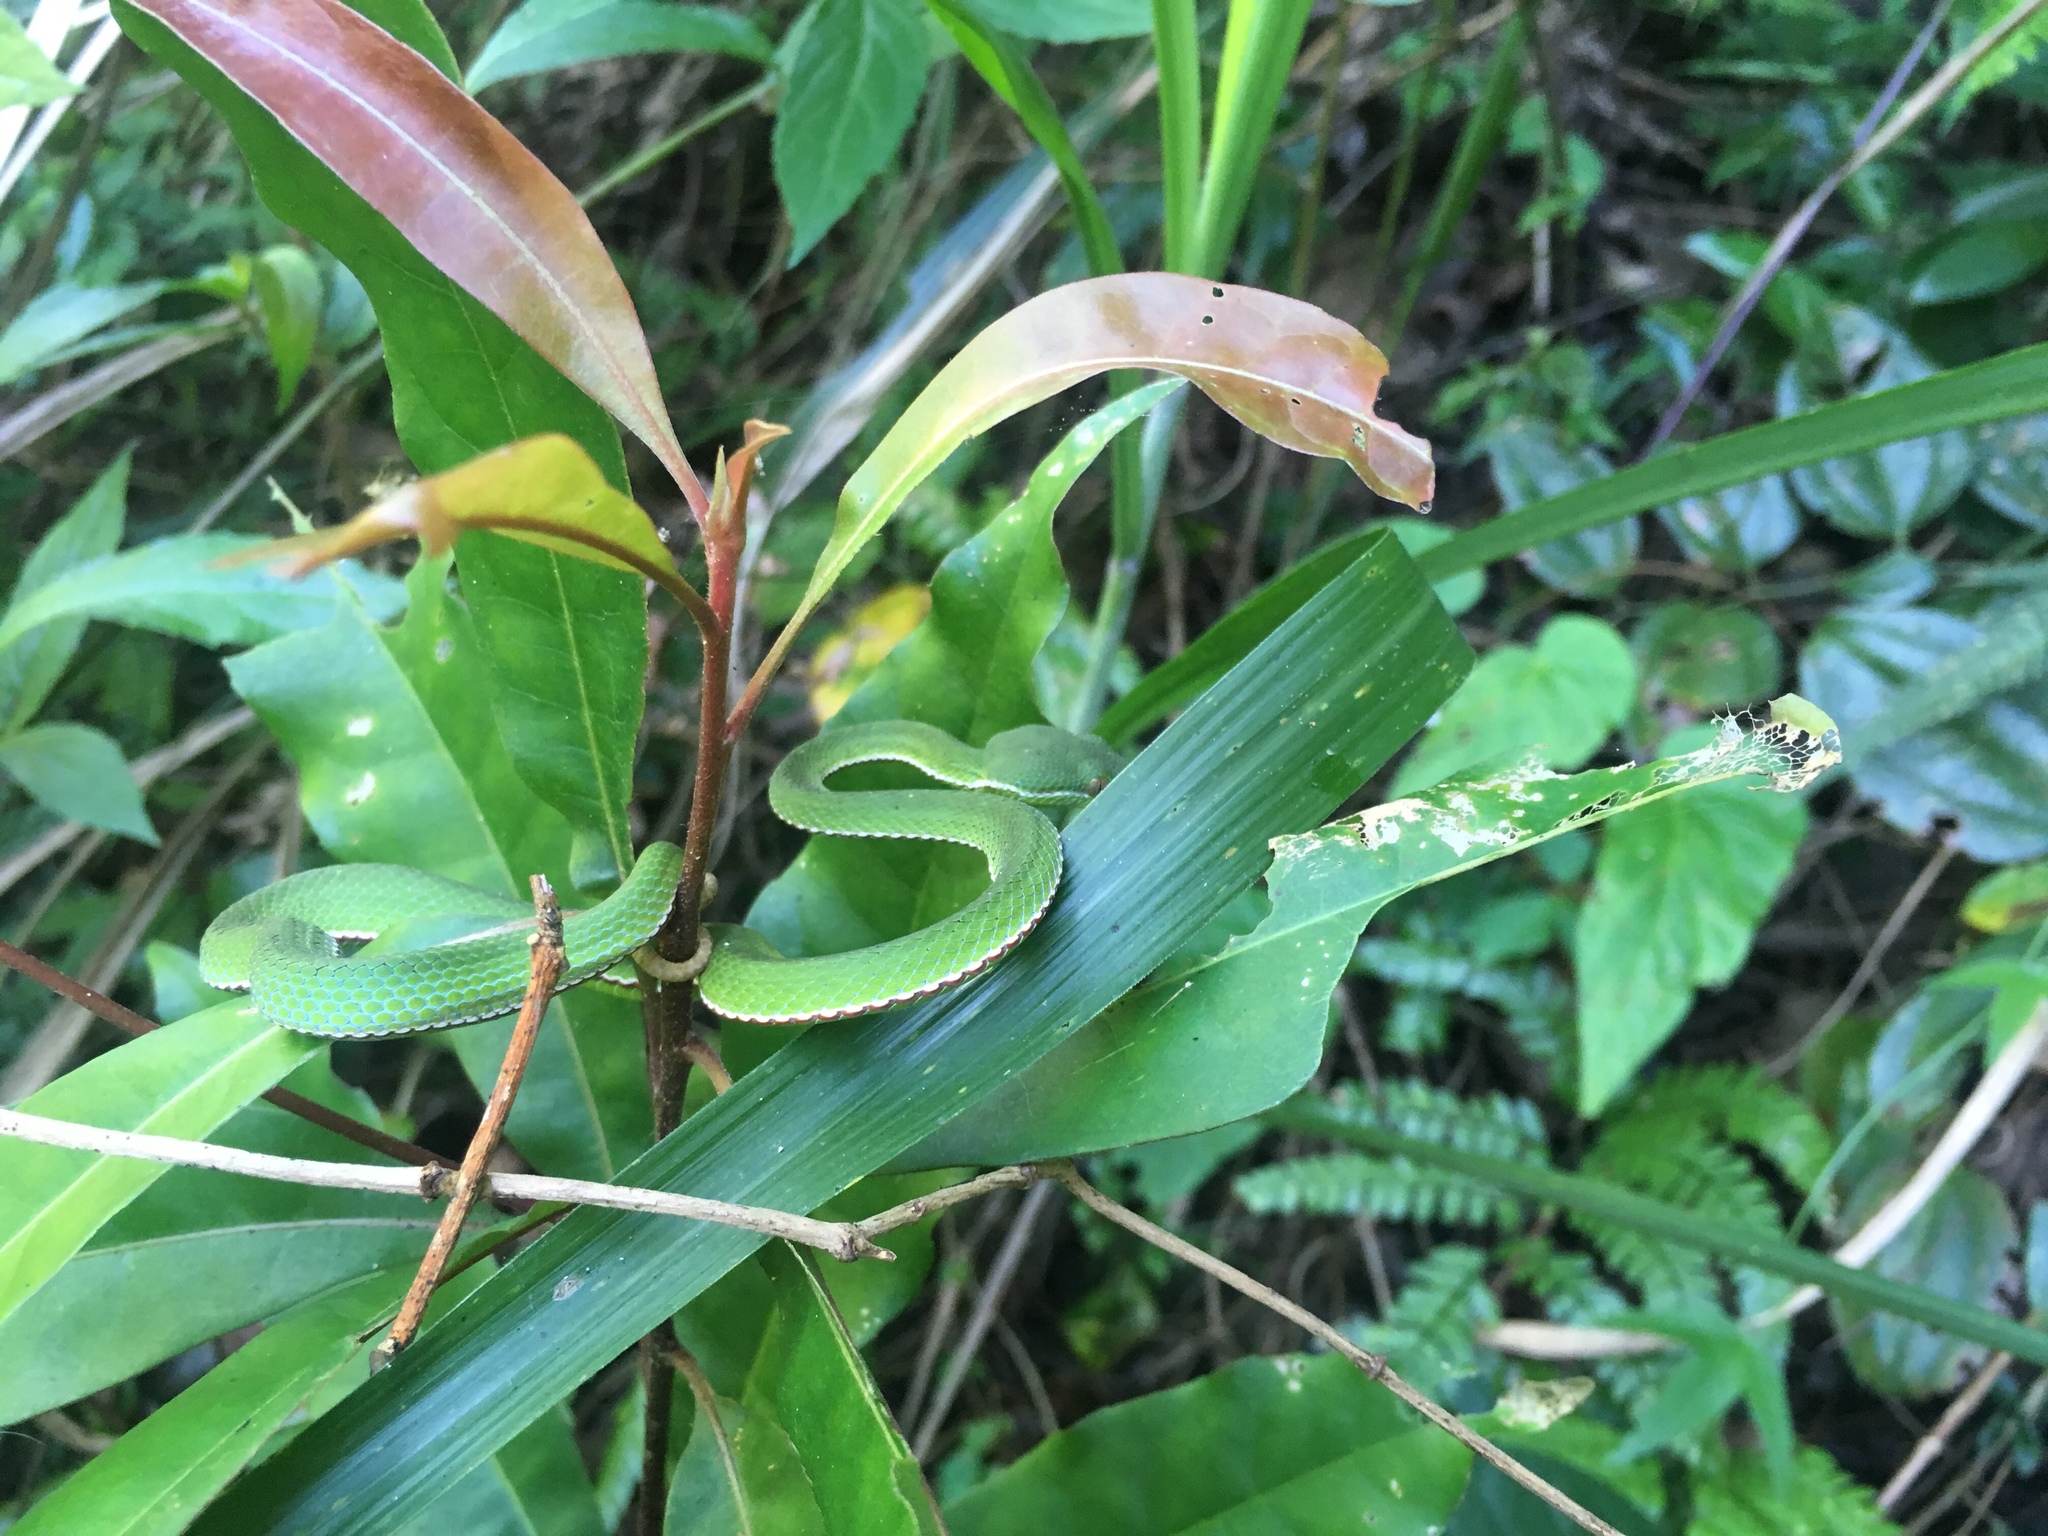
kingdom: Animalia
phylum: Chordata
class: Squamata
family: Viperidae
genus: Trimeresurus
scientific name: Trimeresurus stejnegeri
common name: Chen’s bamboo pit viper
